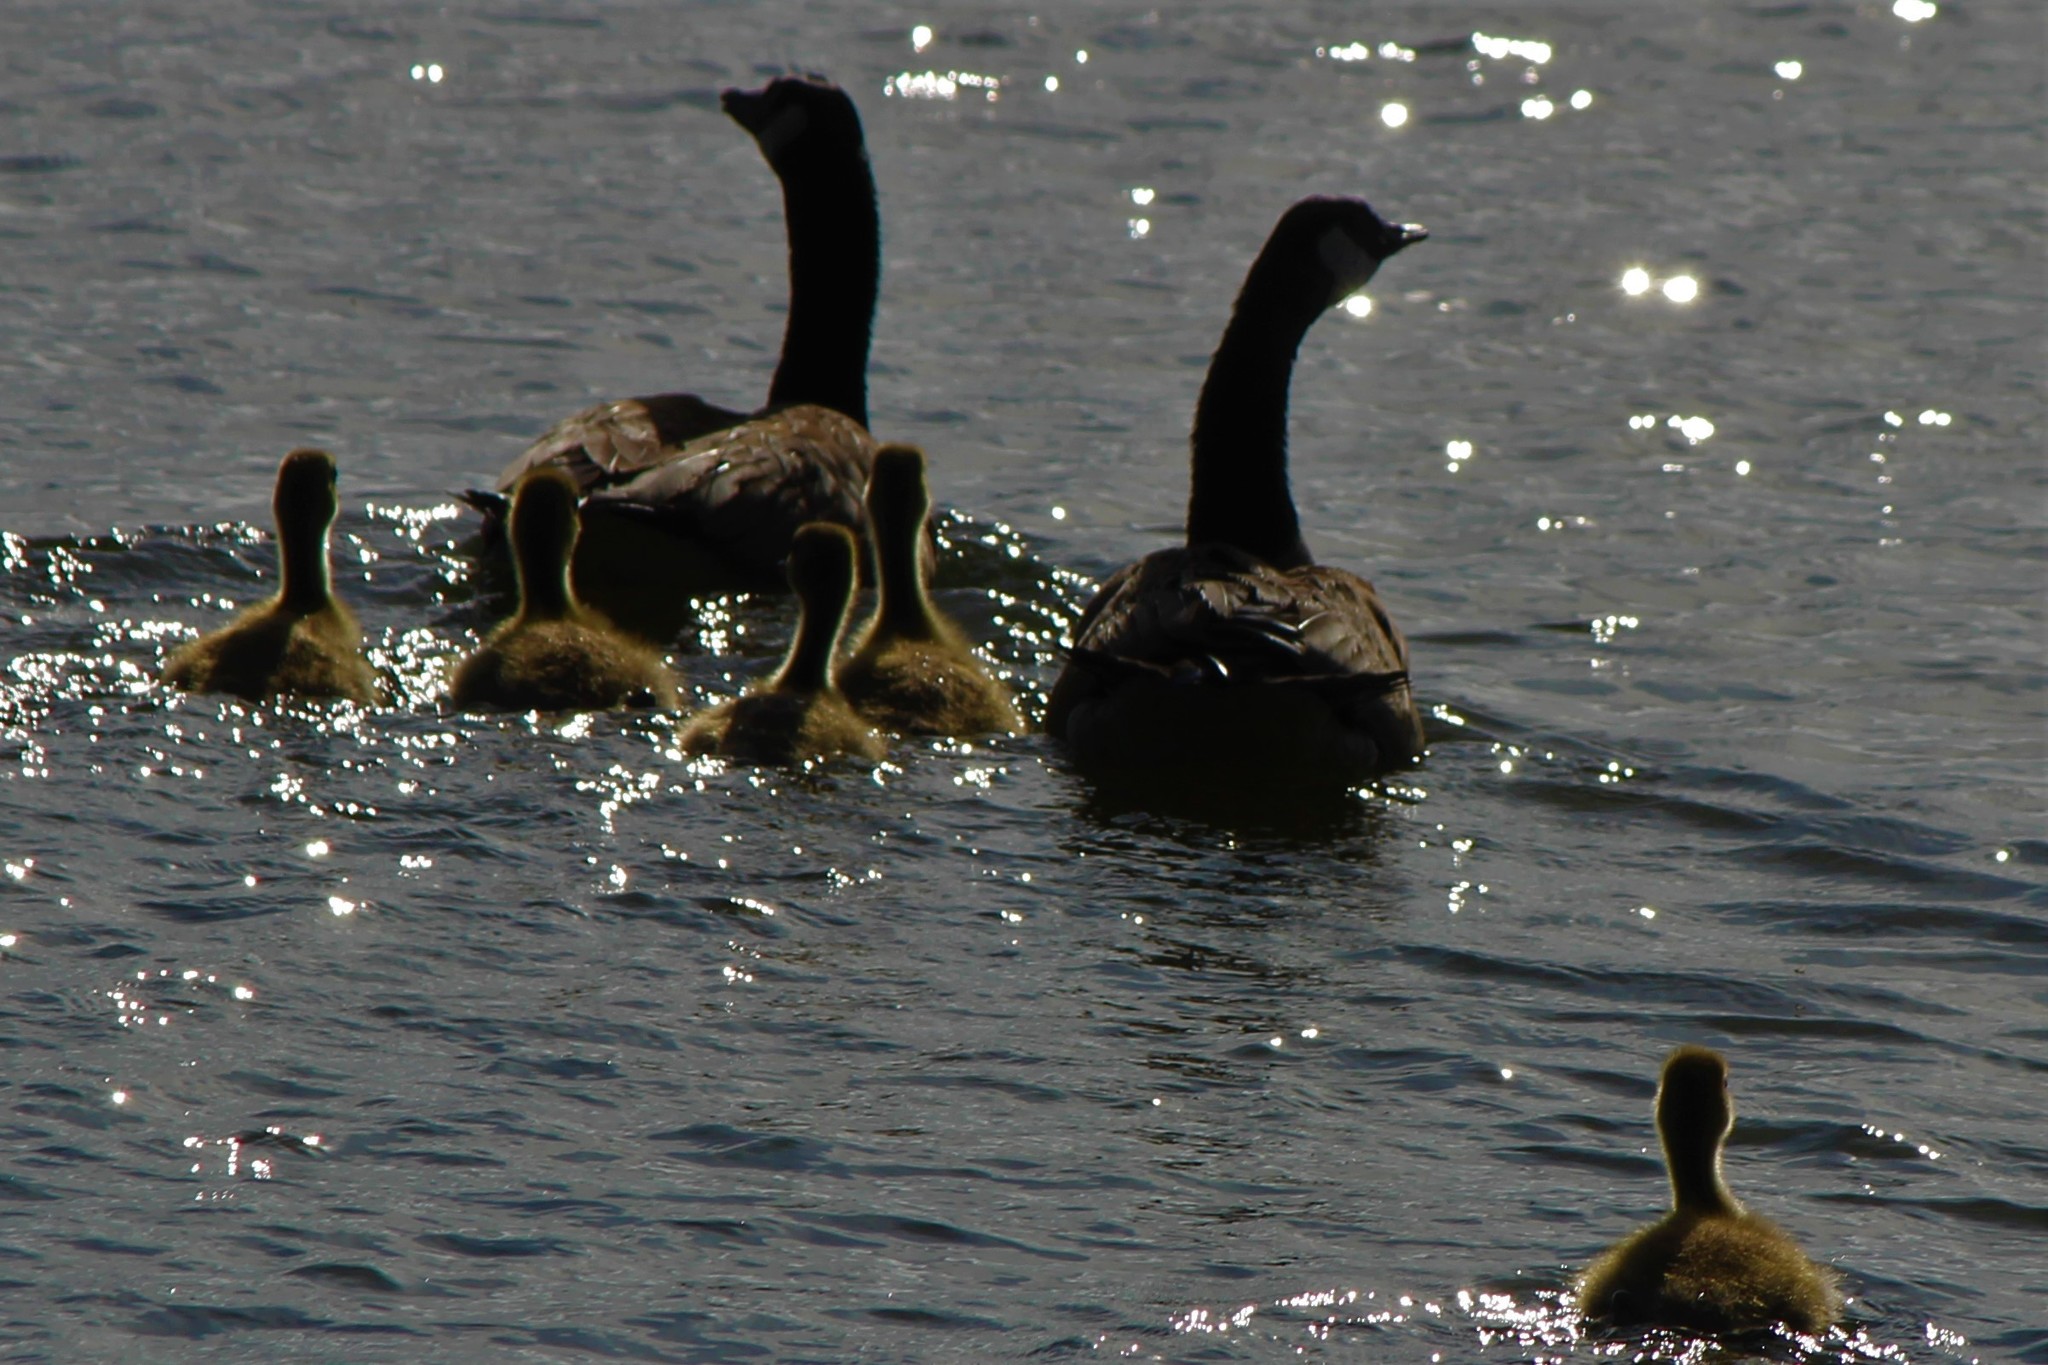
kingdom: Animalia
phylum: Chordata
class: Aves
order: Anseriformes
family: Anatidae
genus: Branta
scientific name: Branta canadensis
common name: Canada goose
